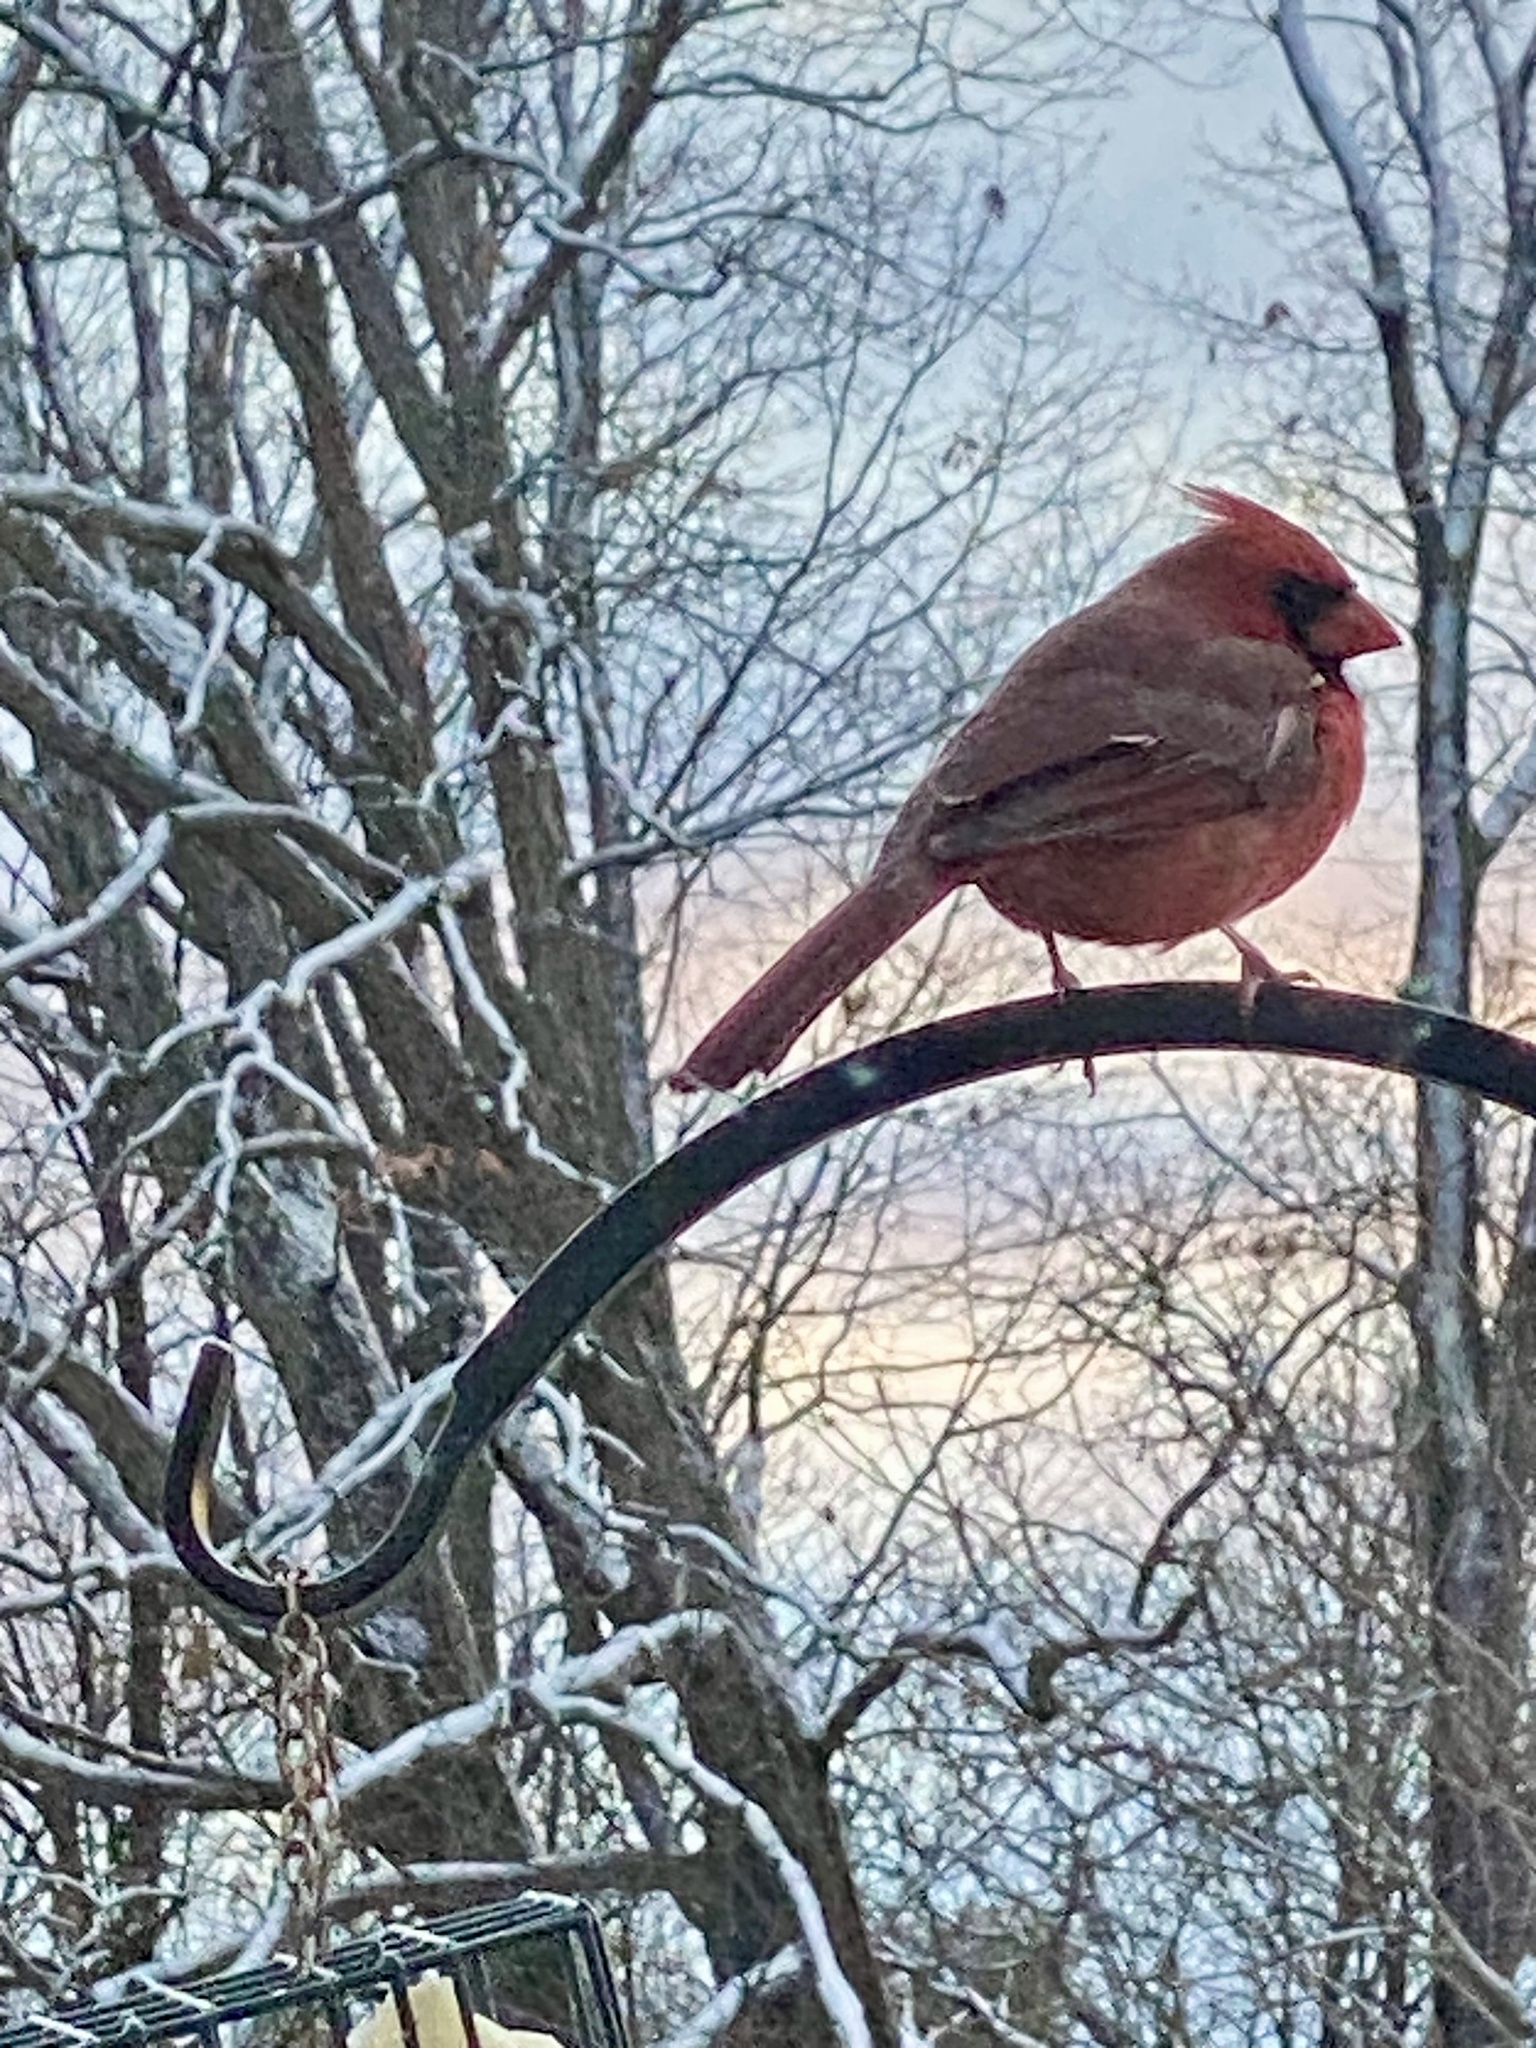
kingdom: Animalia
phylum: Chordata
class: Aves
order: Passeriformes
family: Cardinalidae
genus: Cardinalis
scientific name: Cardinalis cardinalis
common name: Northern cardinal
